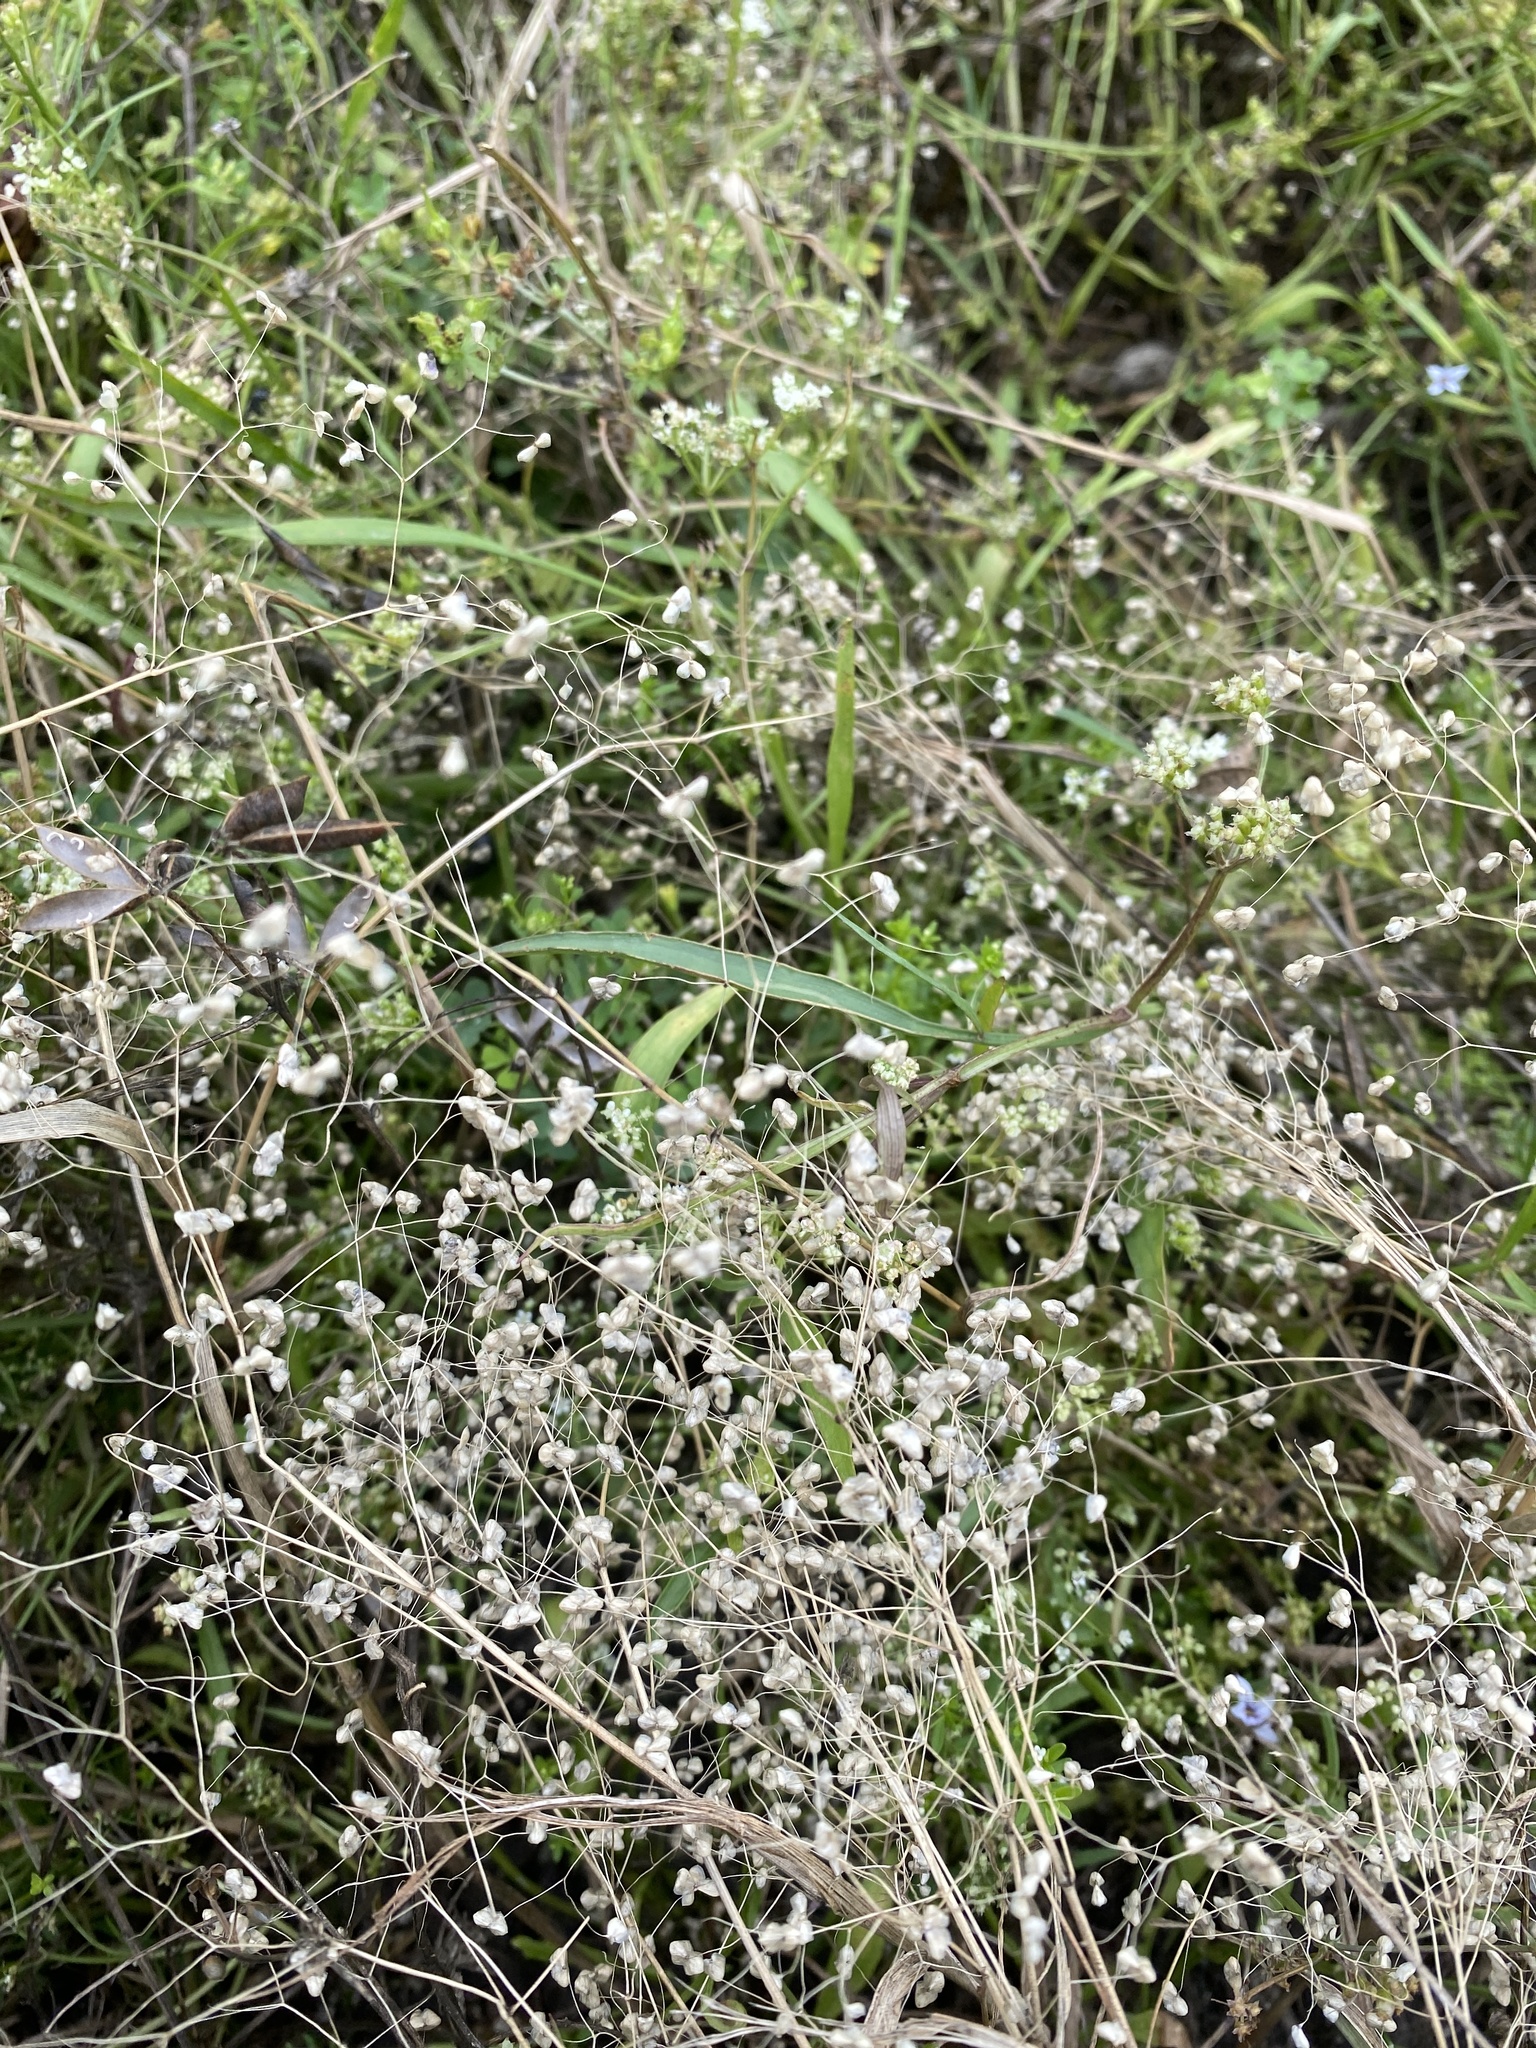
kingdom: Plantae
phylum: Tracheophyta
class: Liliopsida
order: Poales
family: Poaceae
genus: Briza
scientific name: Briza minor
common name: Lesser quaking-grass
